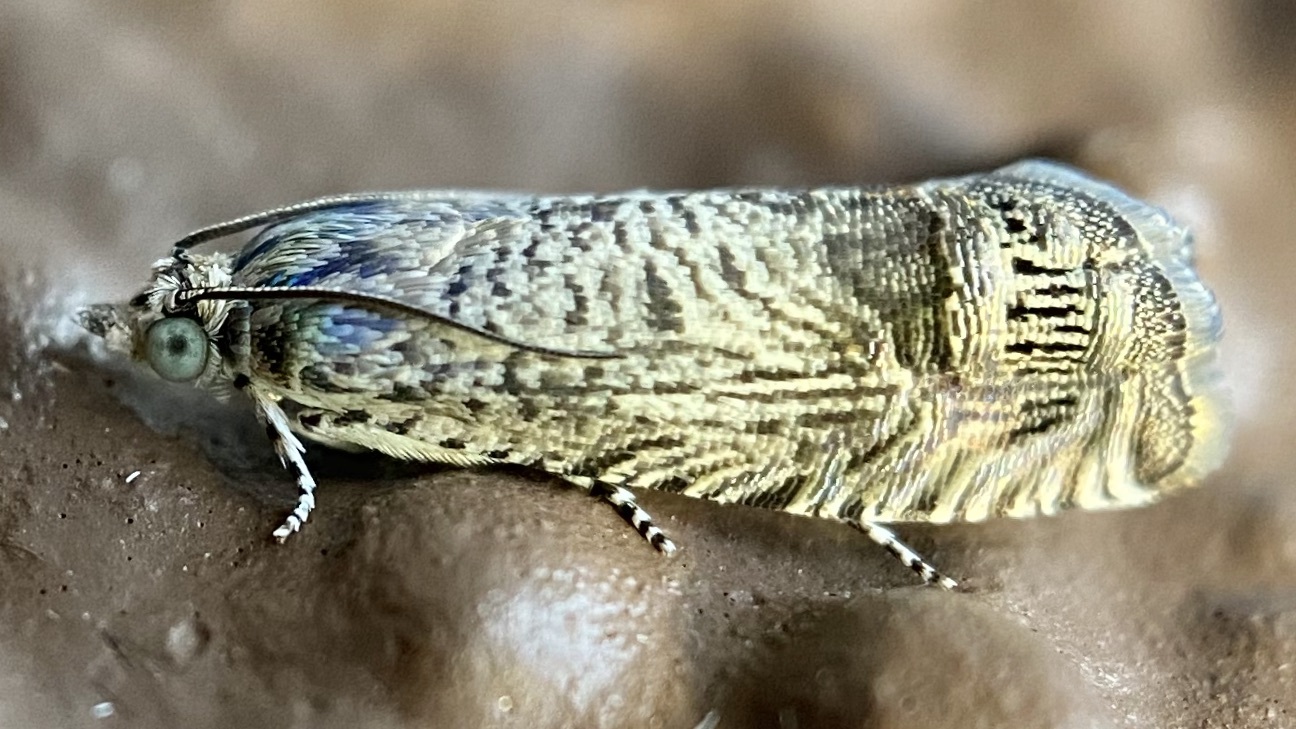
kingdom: Animalia
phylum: Arthropoda
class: Insecta
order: Lepidoptera
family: Tortricidae
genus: Ofatulena
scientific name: Ofatulena duodecemstriata
